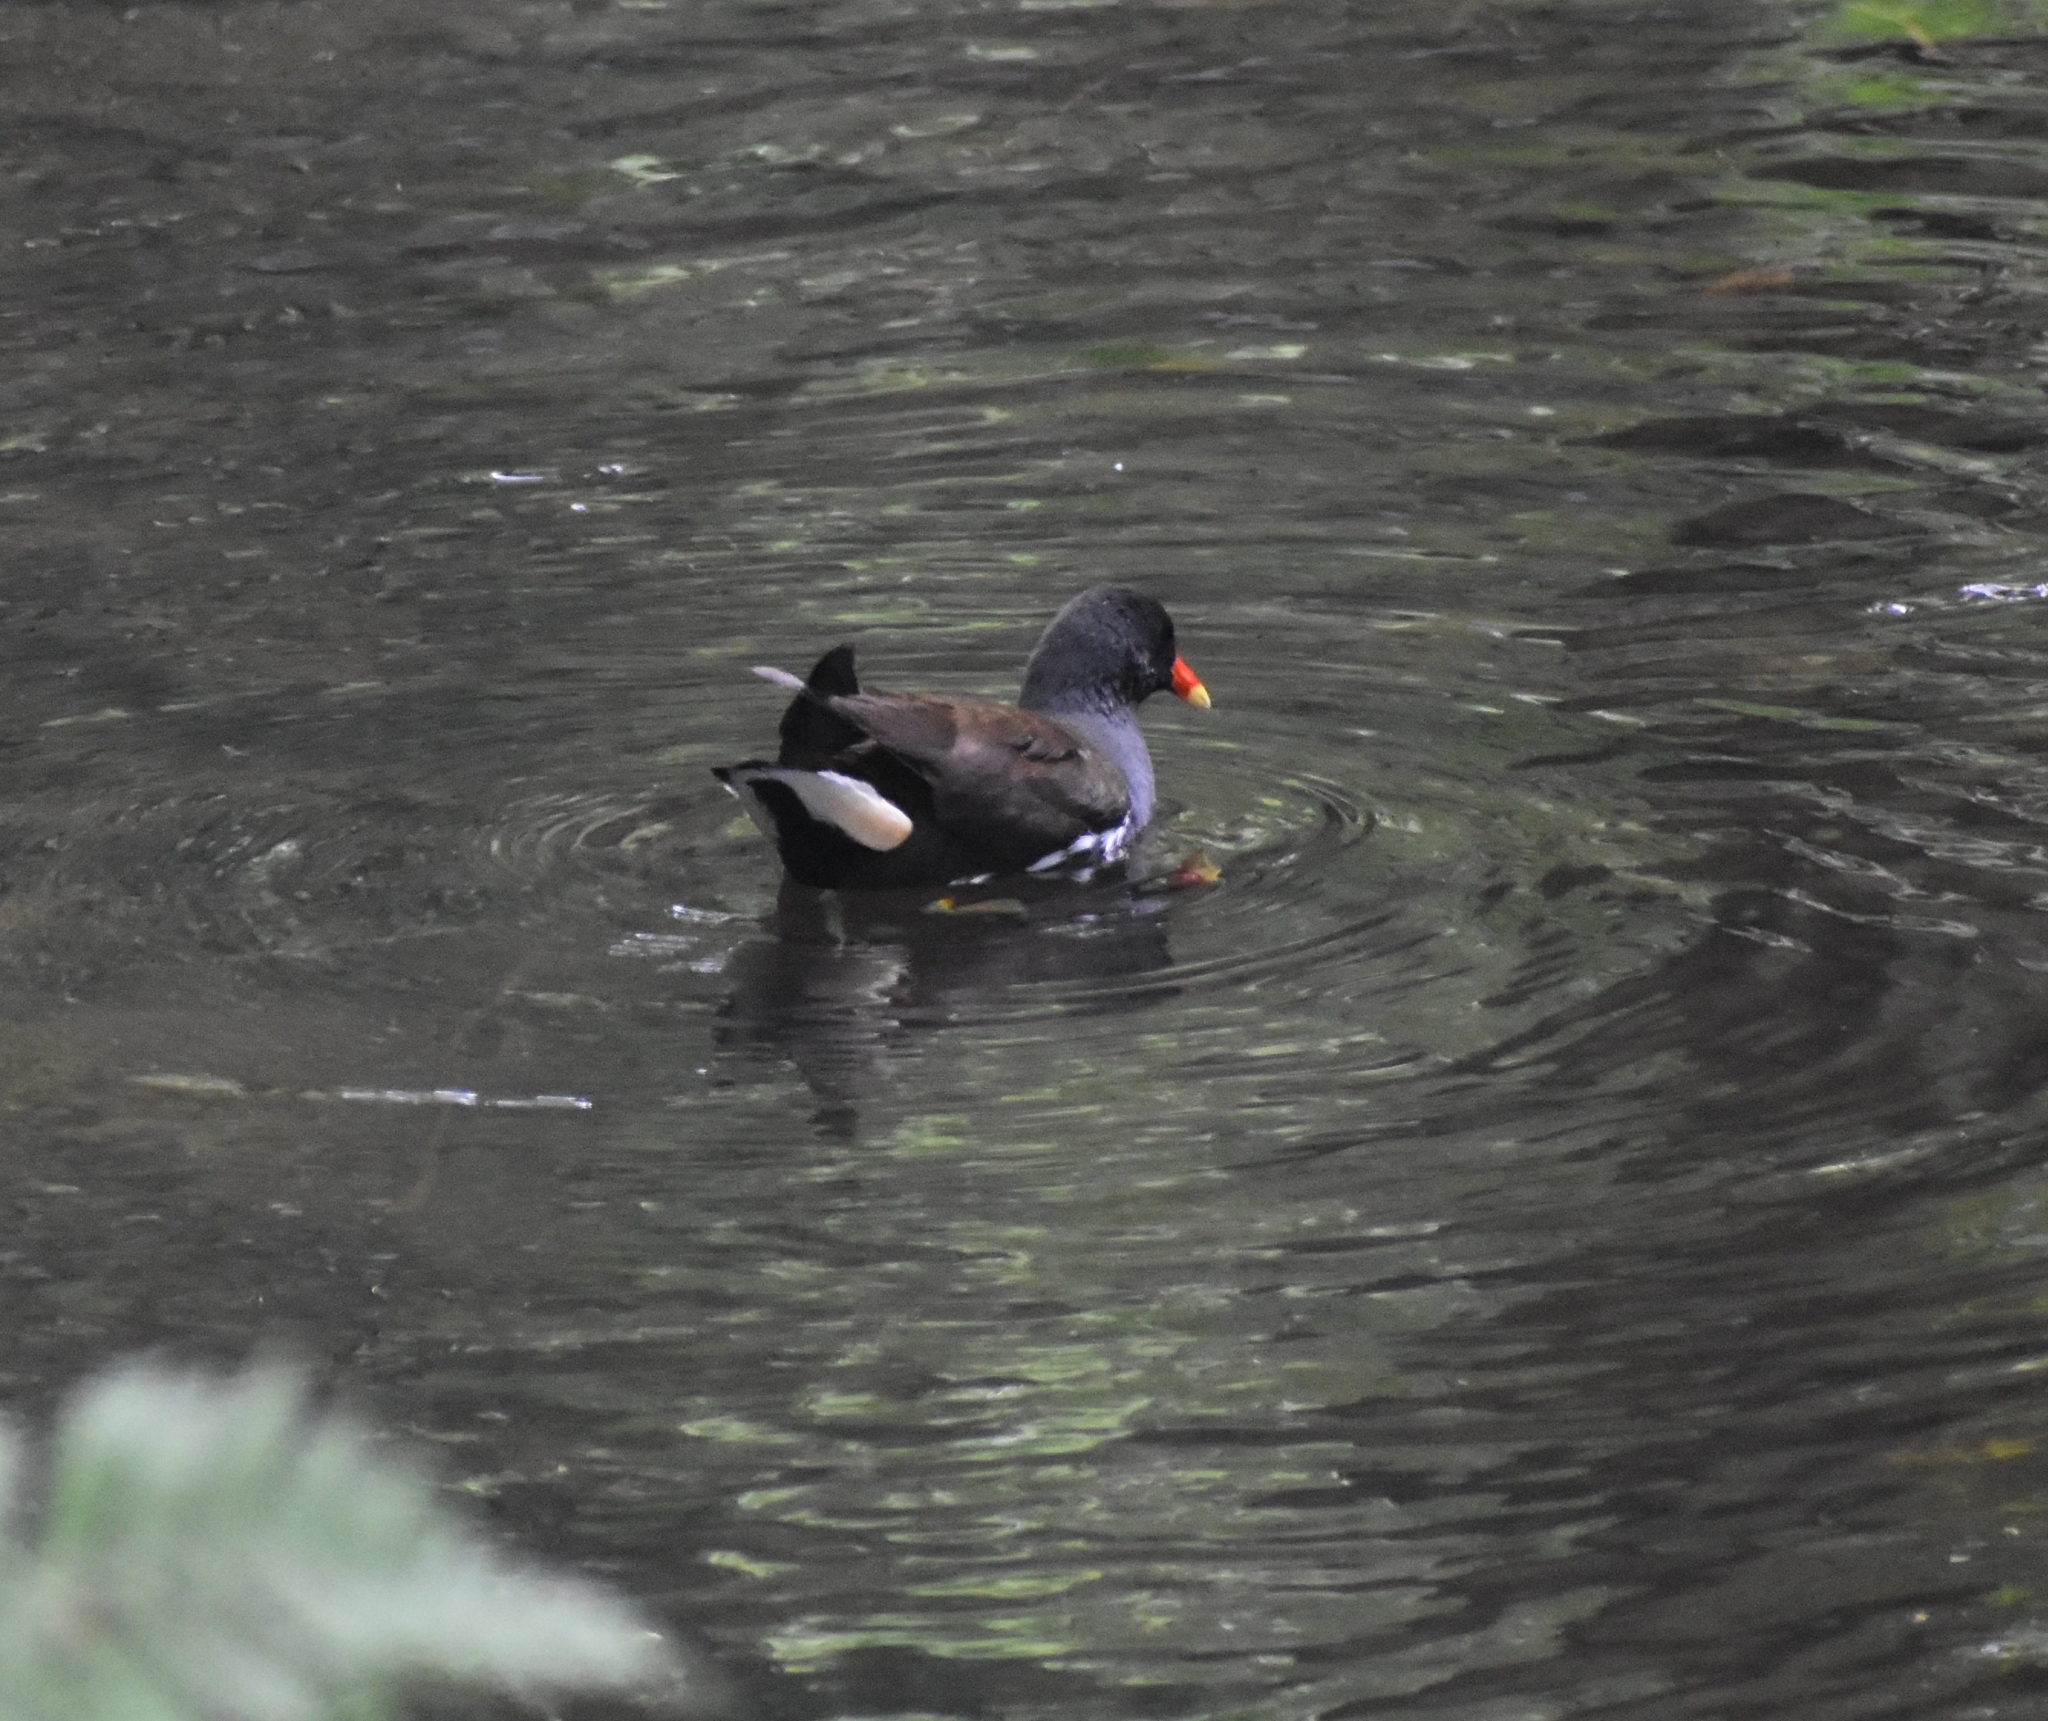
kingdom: Animalia
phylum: Chordata
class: Aves
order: Gruiformes
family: Rallidae
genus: Gallinula
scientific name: Gallinula chloropus
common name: Common moorhen
